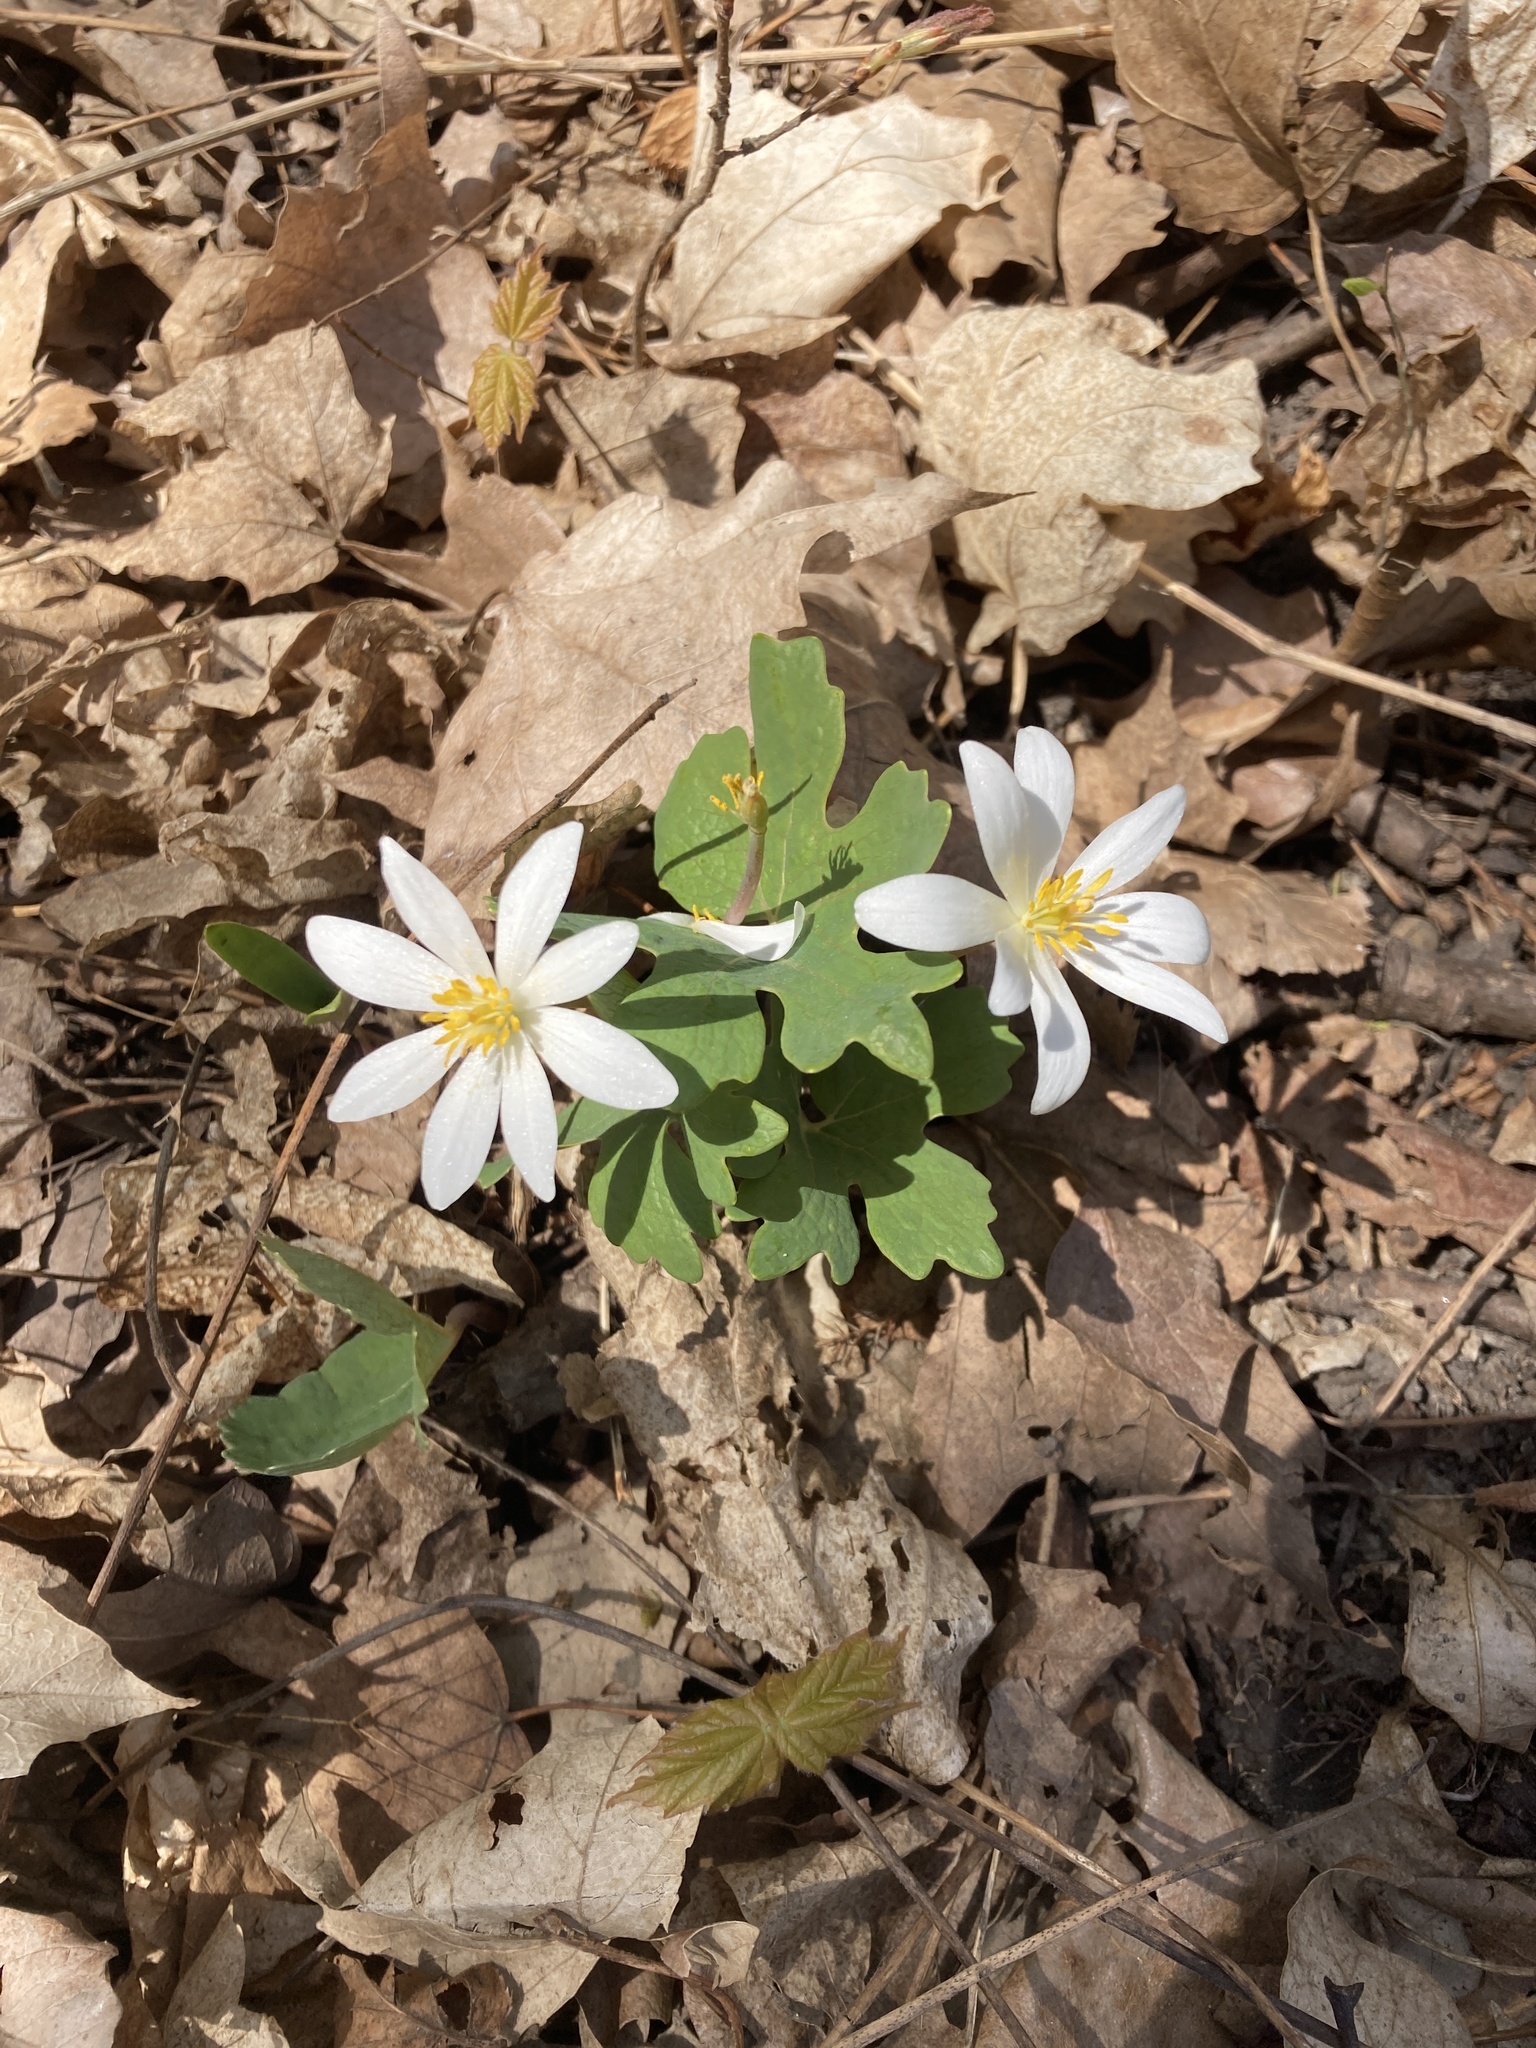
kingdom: Plantae
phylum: Tracheophyta
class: Magnoliopsida
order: Ranunculales
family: Papaveraceae
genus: Sanguinaria
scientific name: Sanguinaria canadensis
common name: Bloodroot
